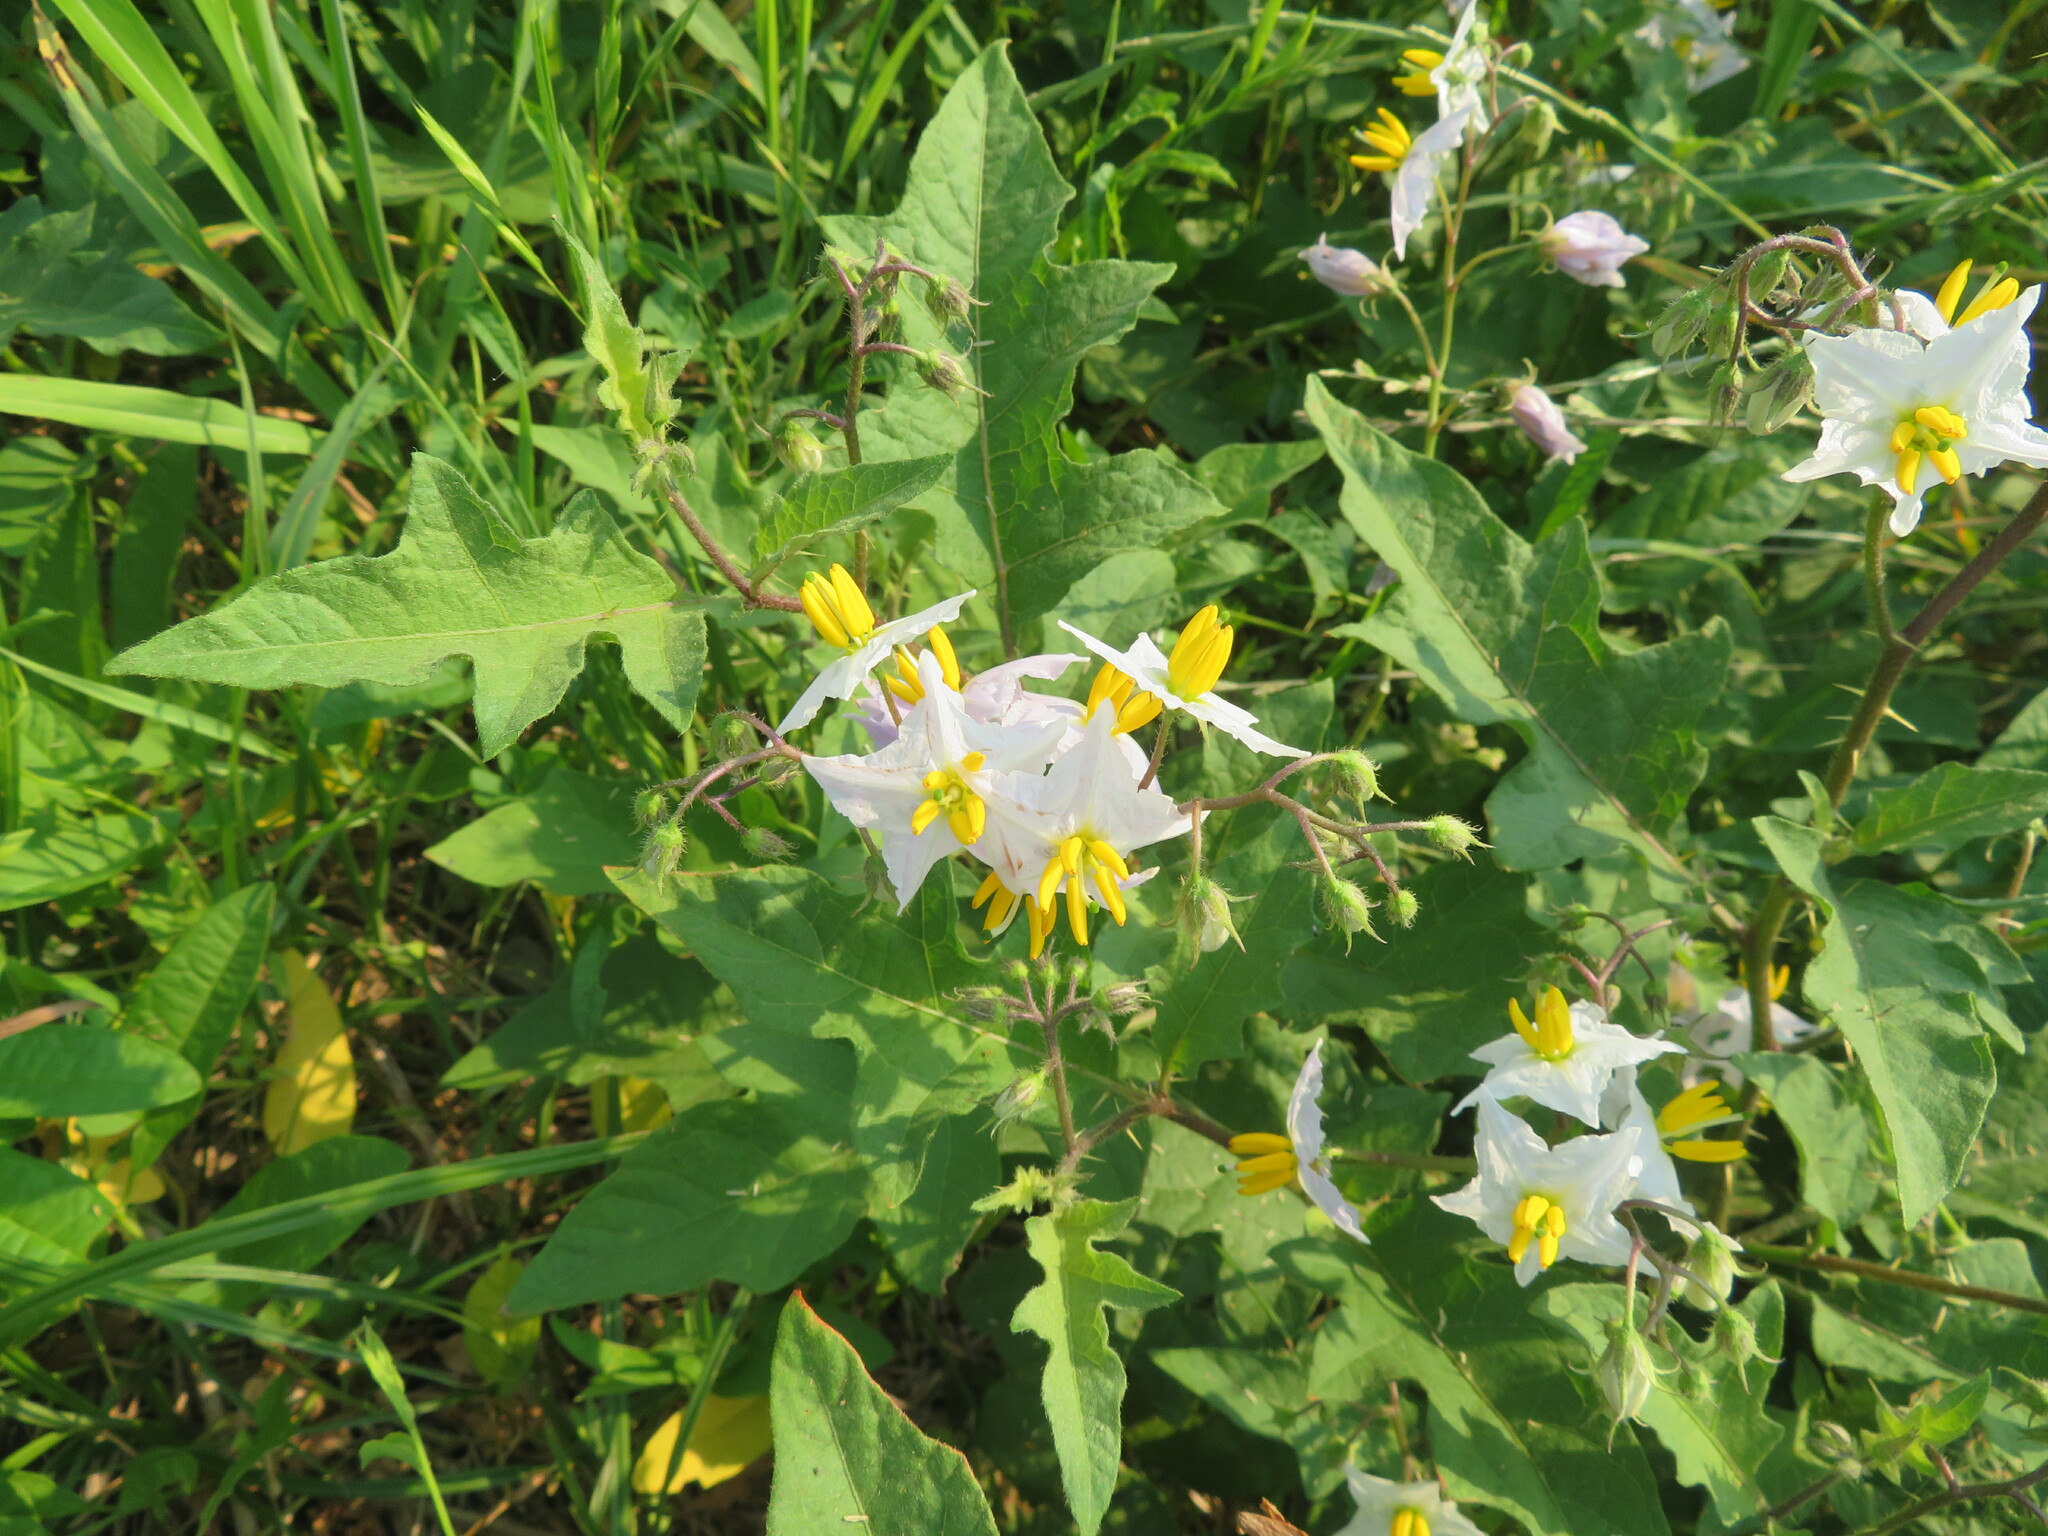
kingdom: Plantae
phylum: Tracheophyta
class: Magnoliopsida
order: Solanales
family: Solanaceae
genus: Solanum
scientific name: Solanum carolinense
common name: Horse-nettle
